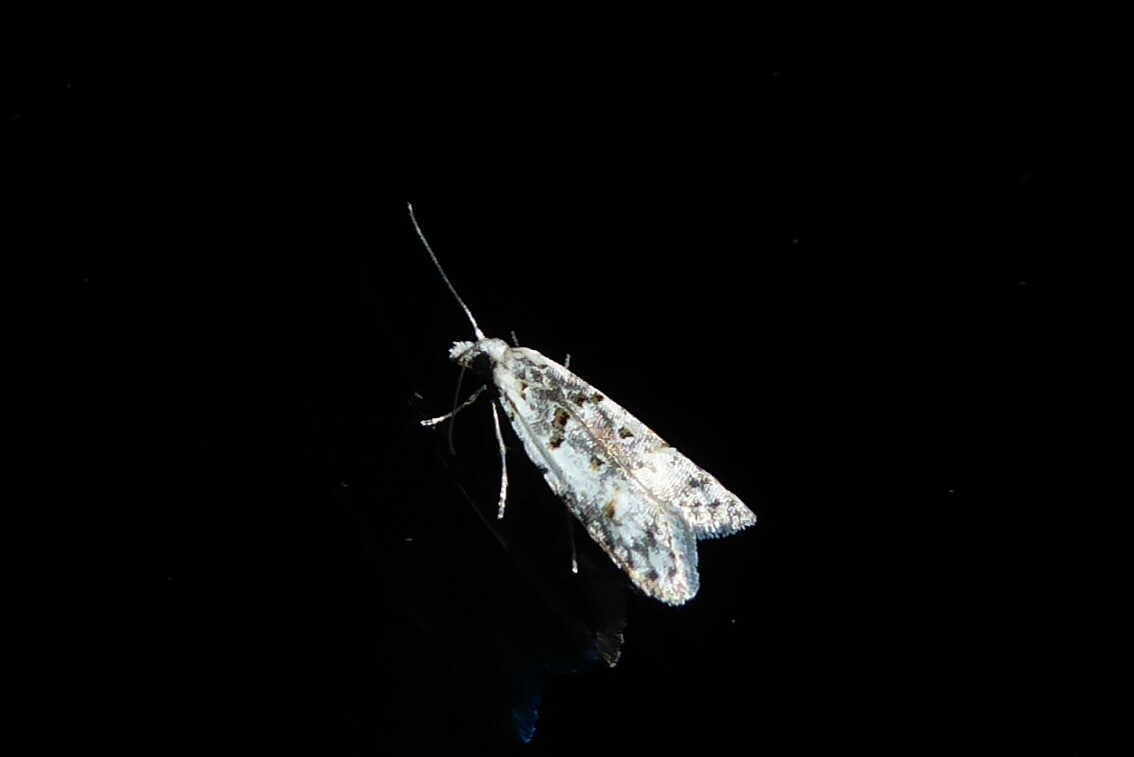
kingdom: Animalia
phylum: Arthropoda
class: Insecta
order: Lepidoptera
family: Carposinidae
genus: Carposina
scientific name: Carposina
